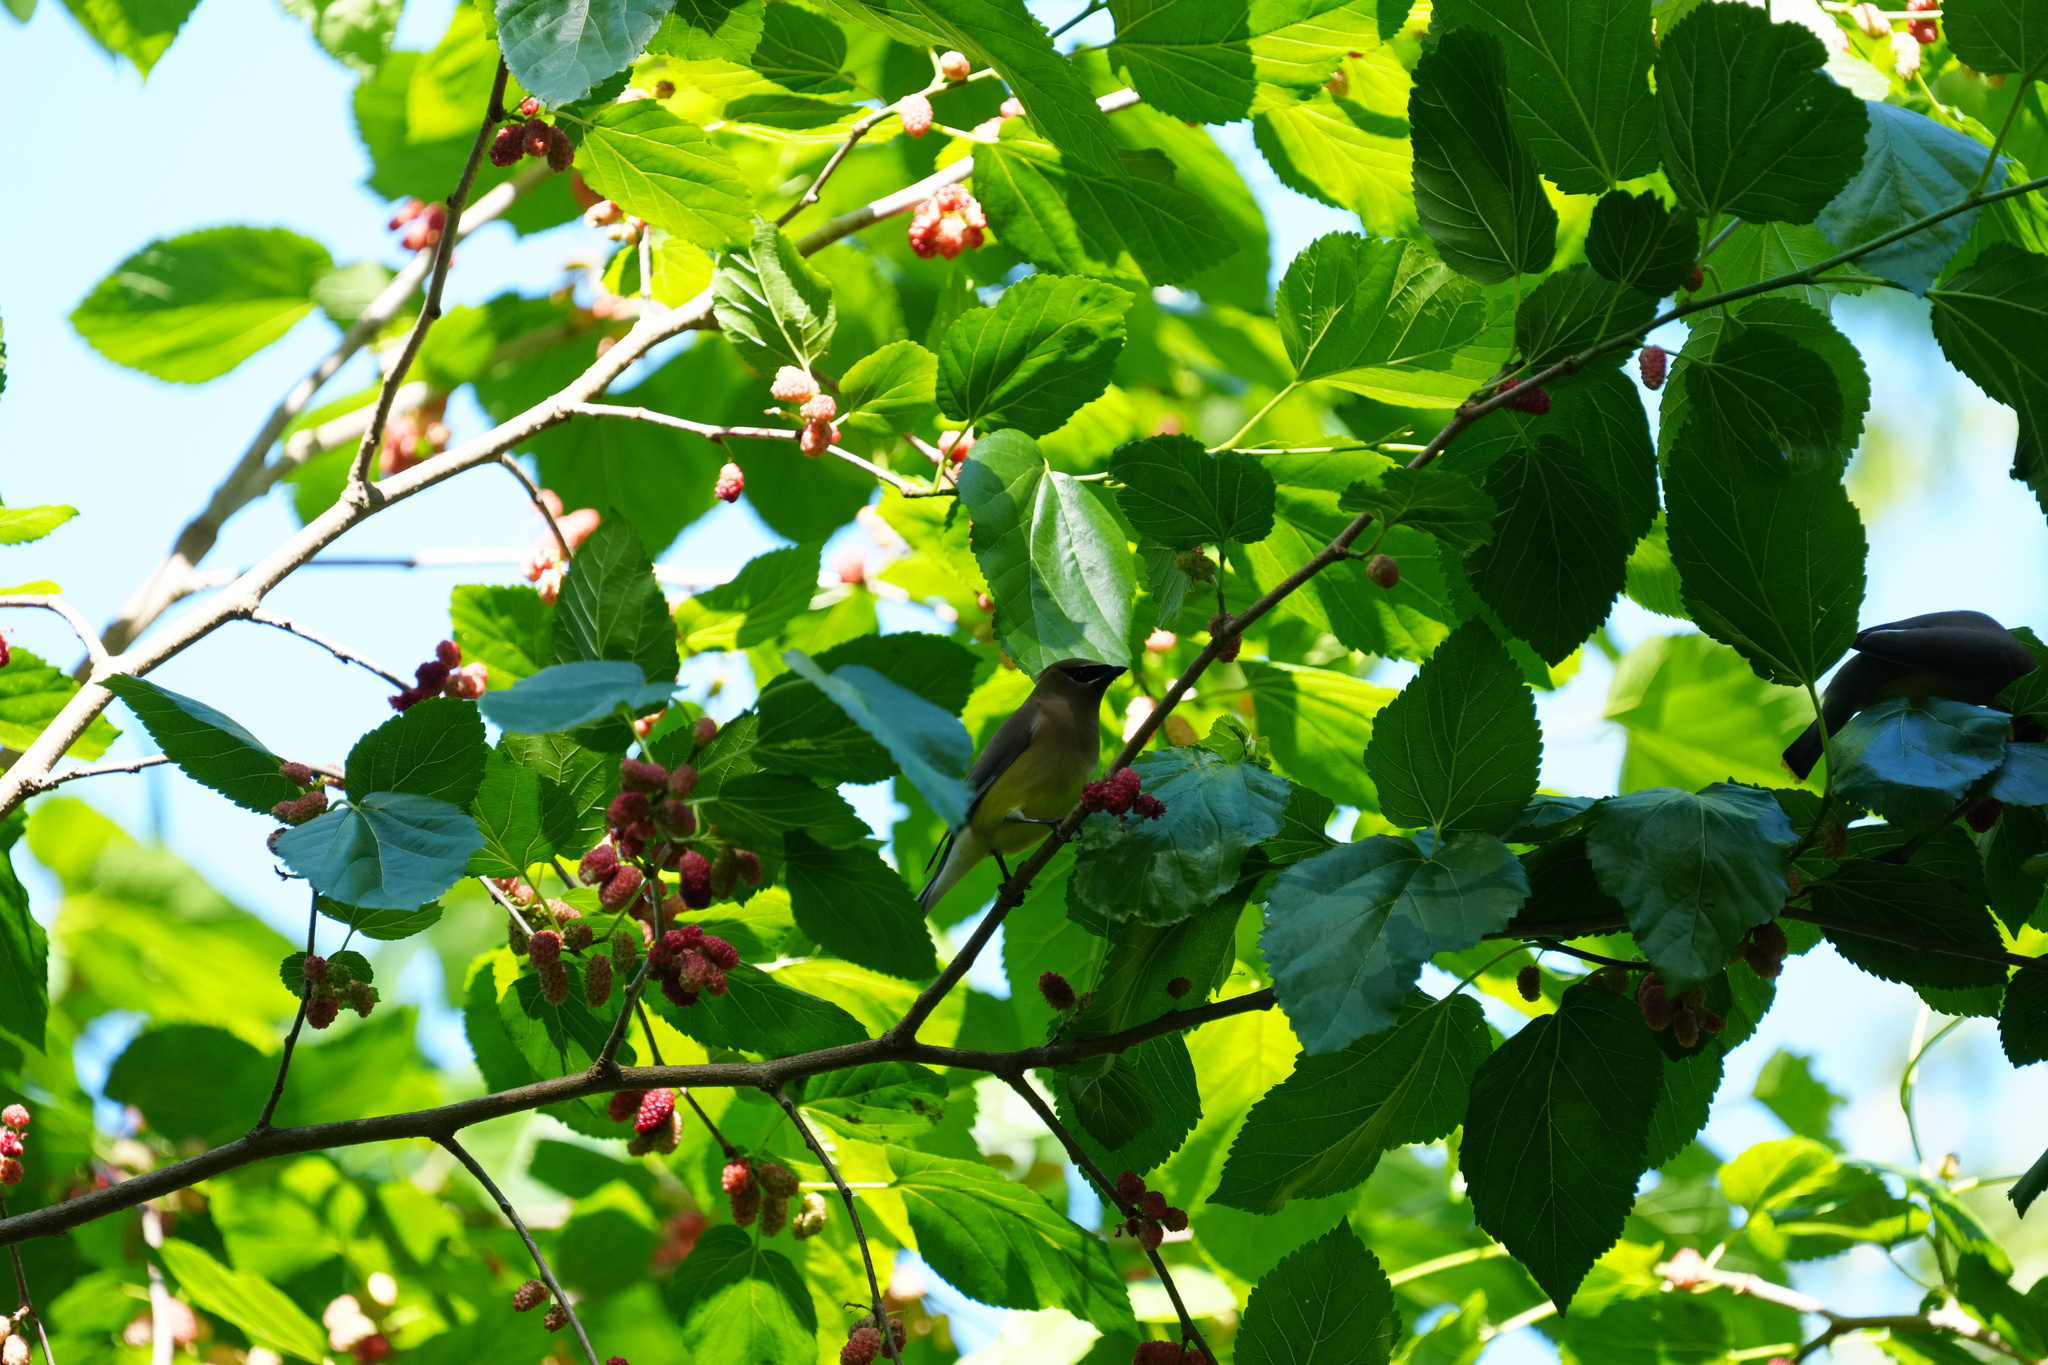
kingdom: Animalia
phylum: Chordata
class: Aves
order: Passeriformes
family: Bombycillidae
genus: Bombycilla
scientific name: Bombycilla cedrorum
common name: Cedar waxwing
